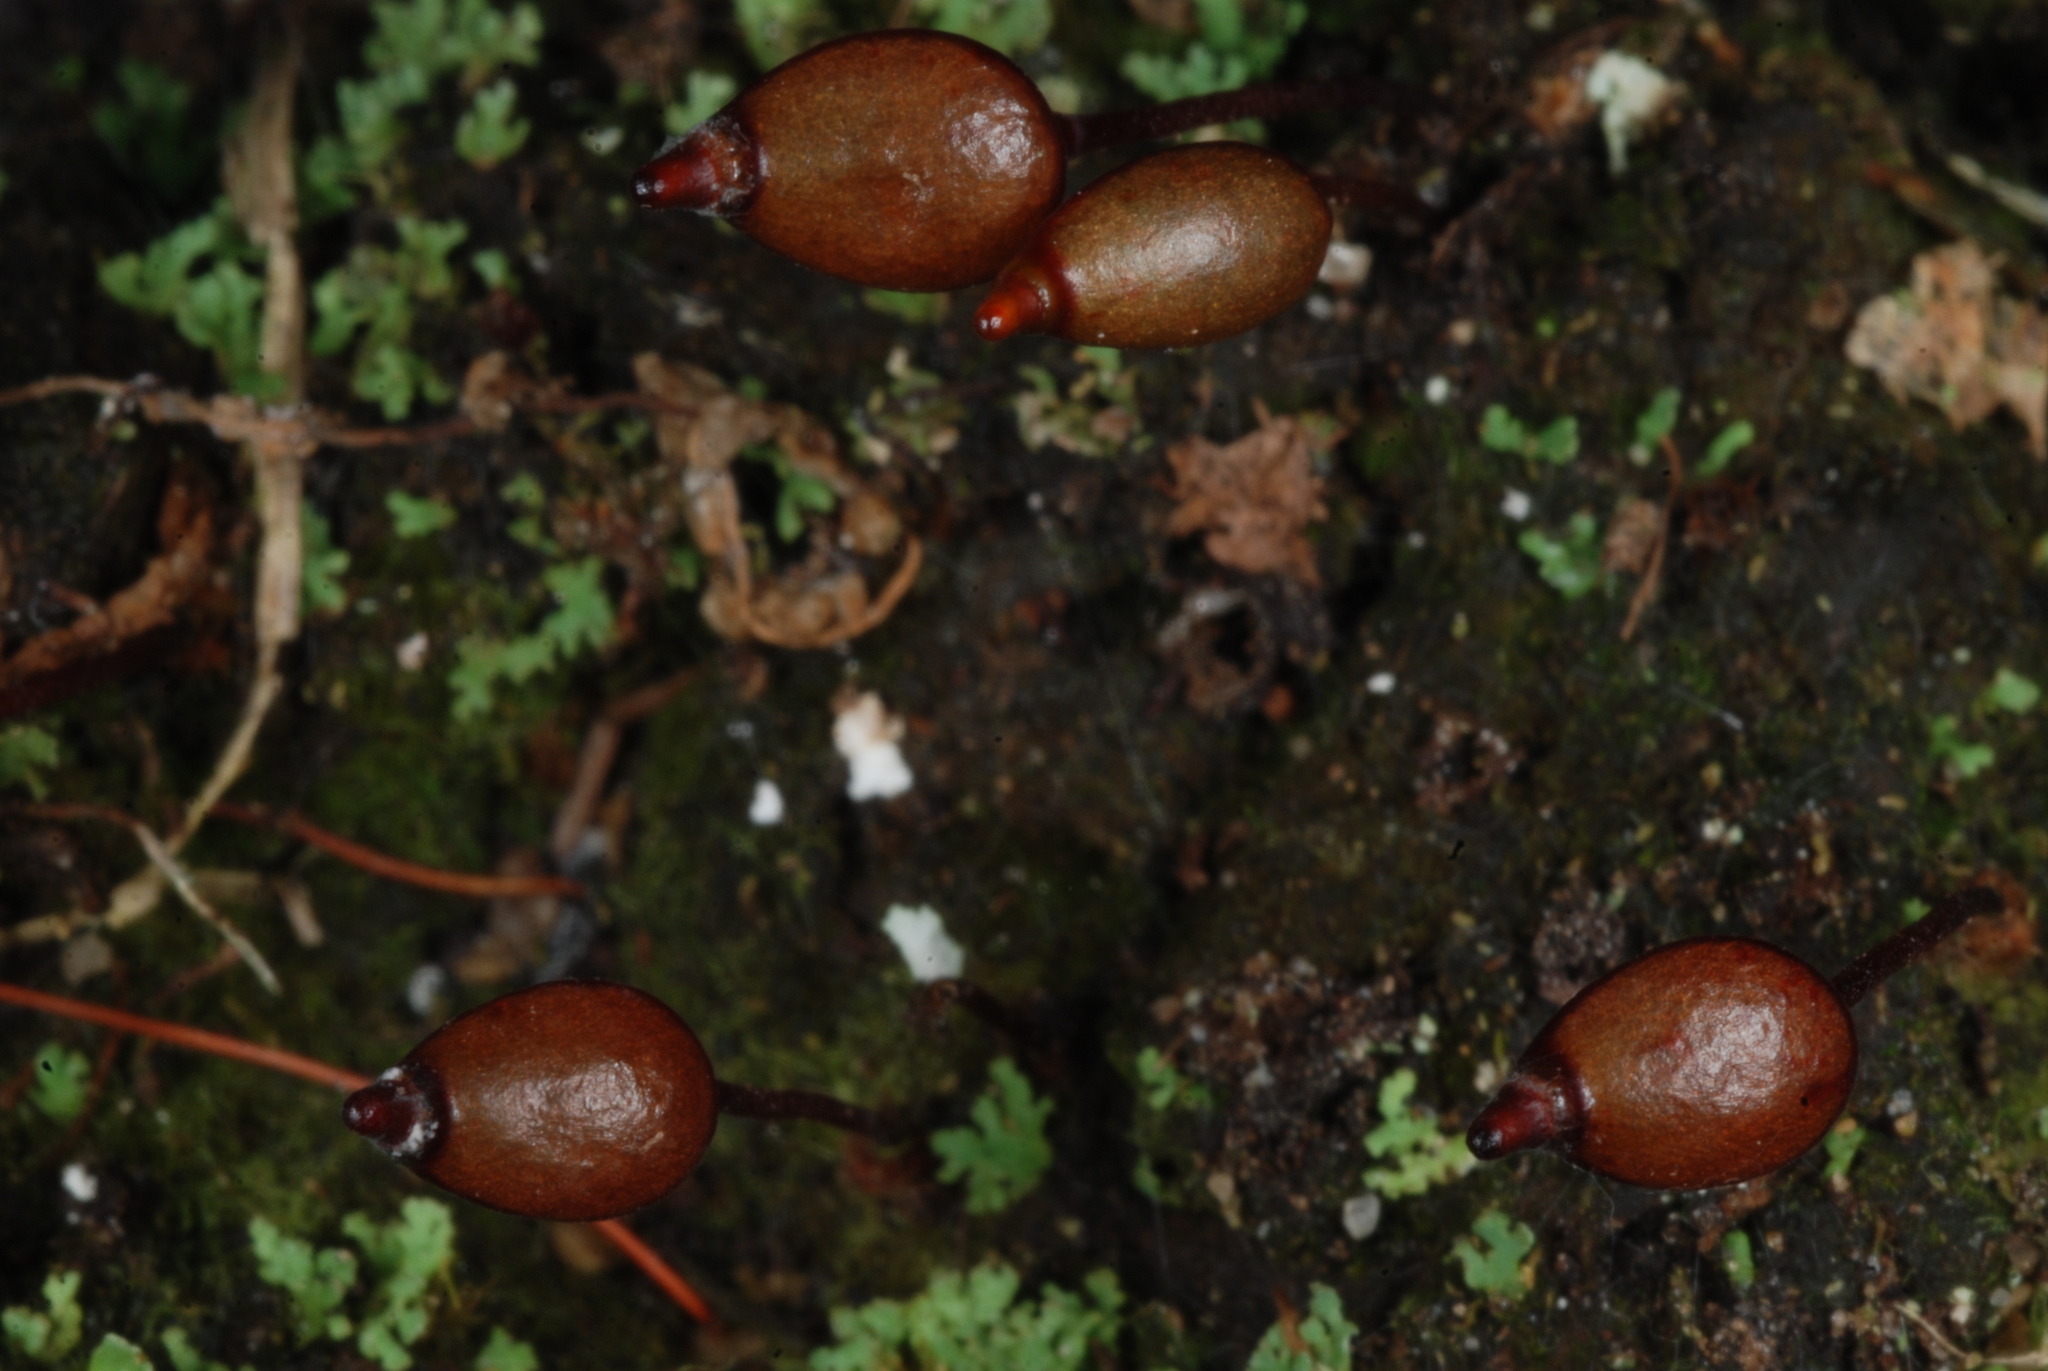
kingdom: Plantae
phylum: Bryophyta
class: Bryopsida
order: Buxbaumiales
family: Buxbaumiaceae
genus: Buxbaumia
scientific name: Buxbaumia aphylla
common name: Brown shield-moss
